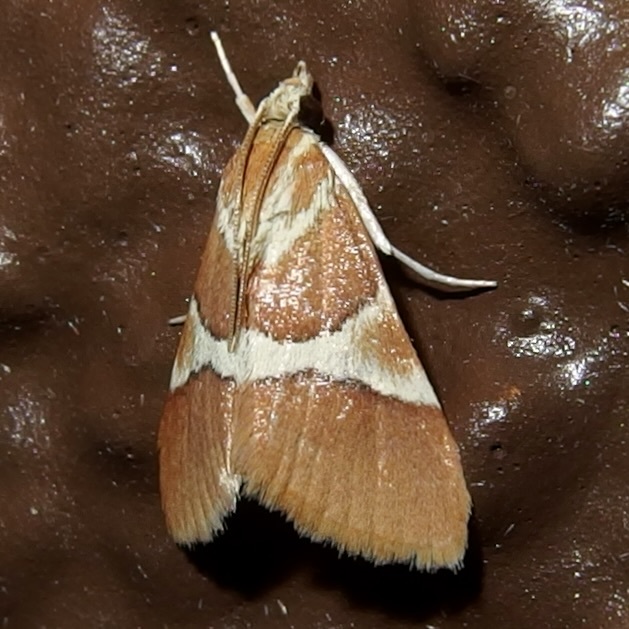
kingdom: Animalia
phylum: Arthropoda
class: Insecta
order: Lepidoptera
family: Crambidae
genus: Jativa
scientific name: Jativa castanealis
